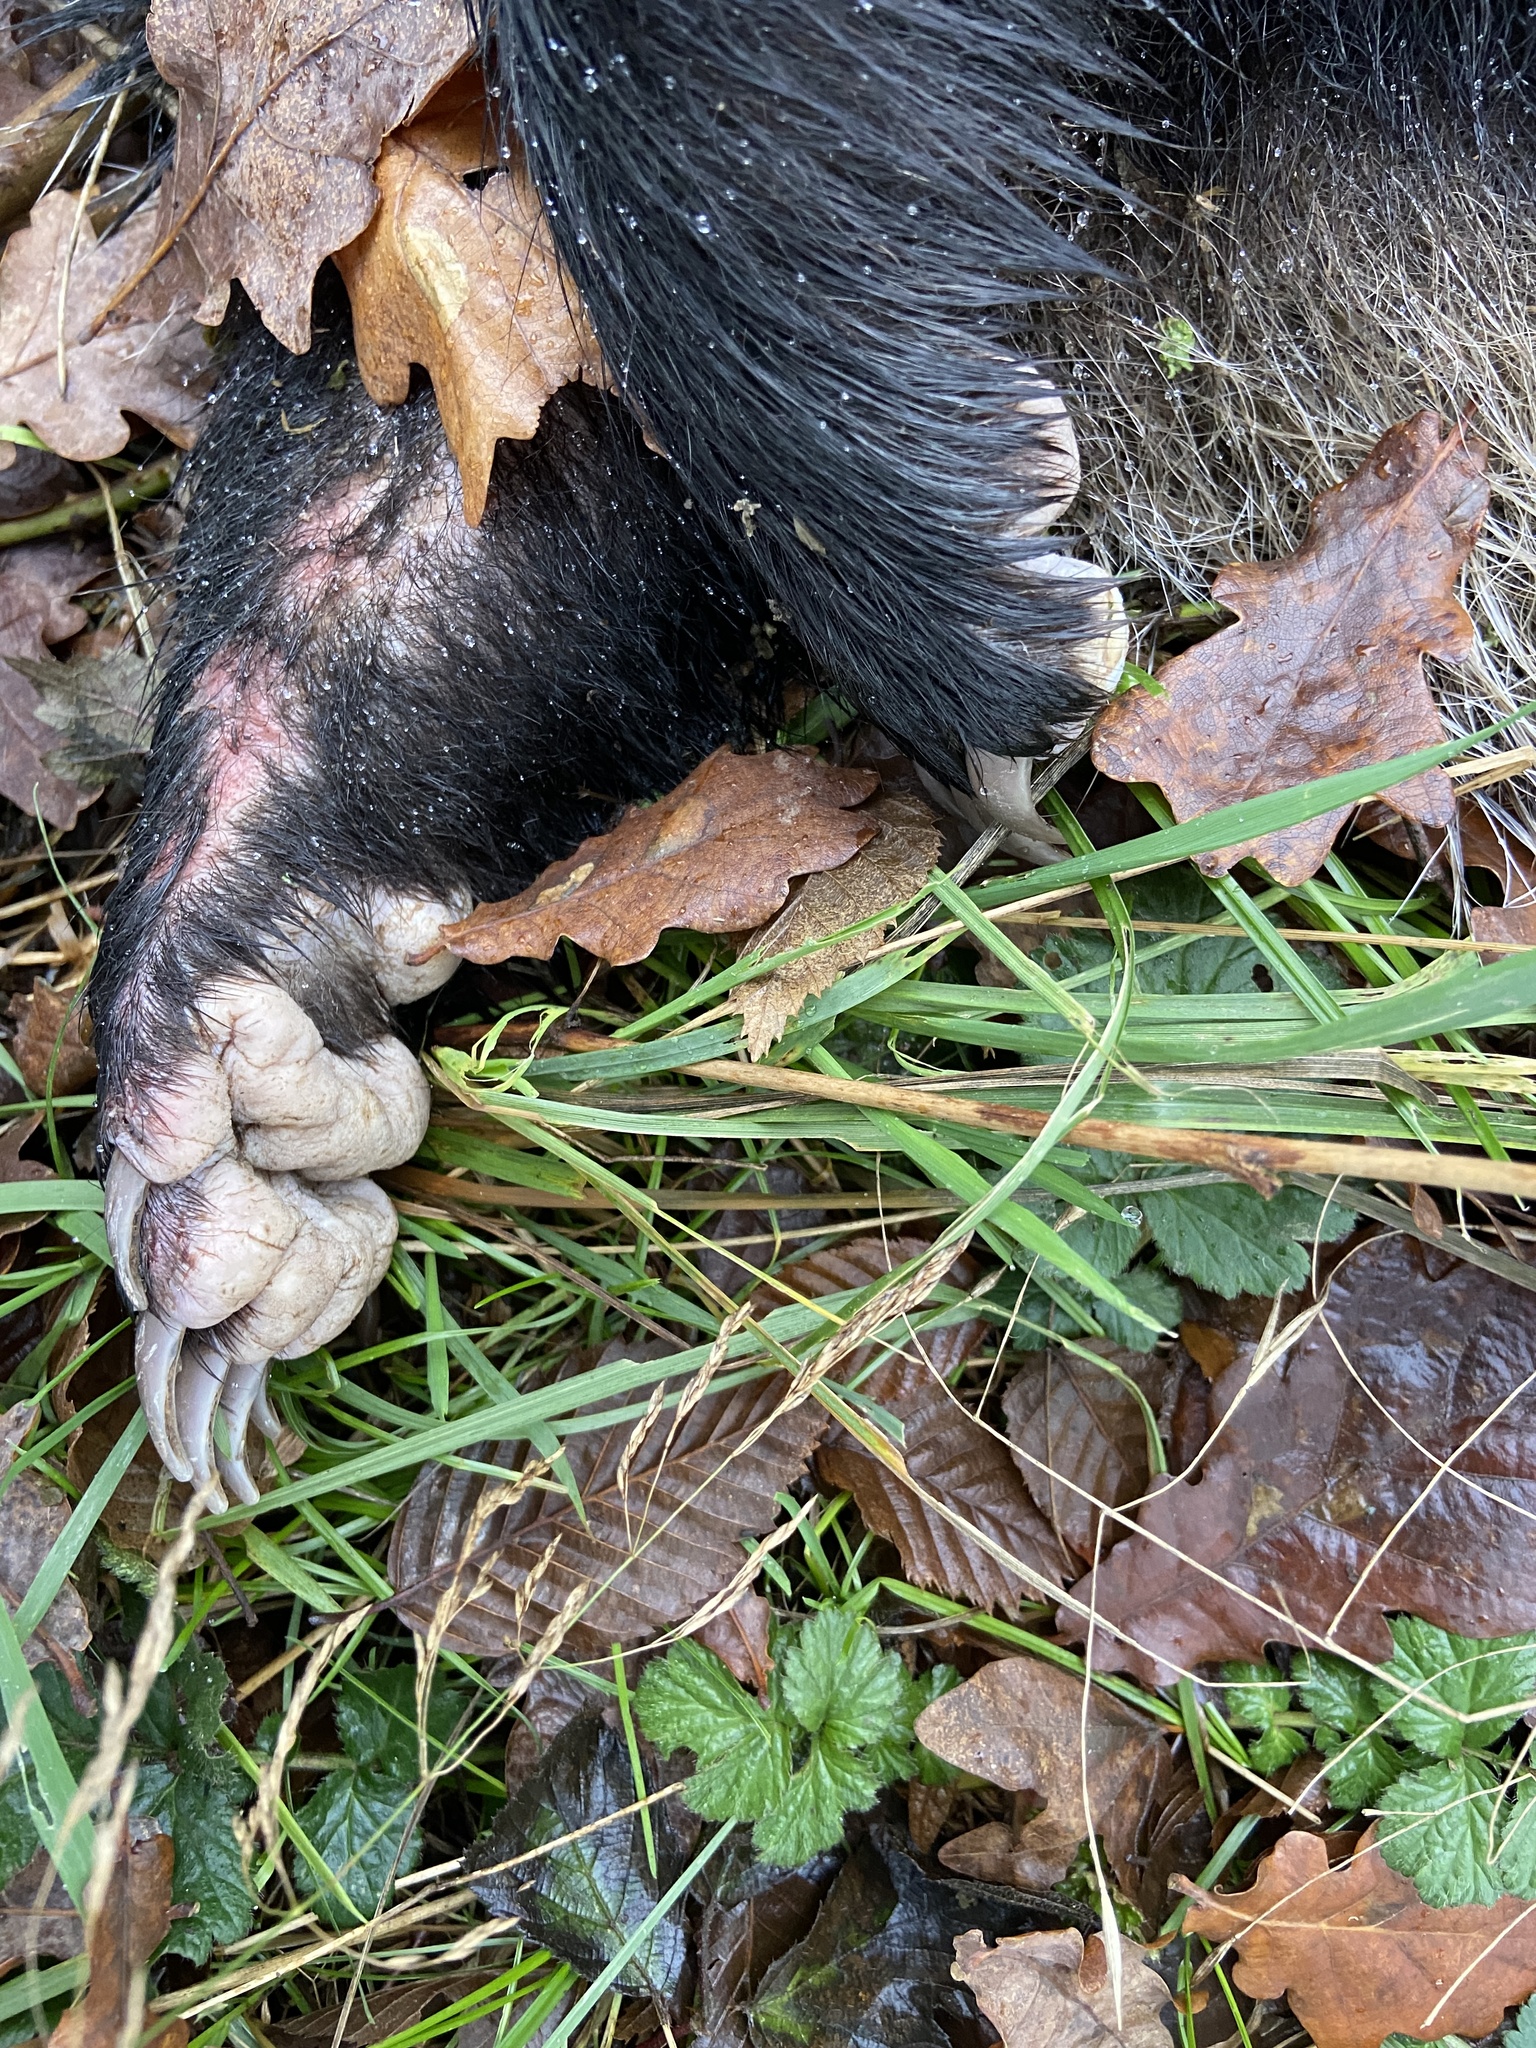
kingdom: Animalia
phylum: Chordata
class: Mammalia
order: Carnivora
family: Mustelidae
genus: Meles
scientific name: Meles meles
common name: Eurasian badger
